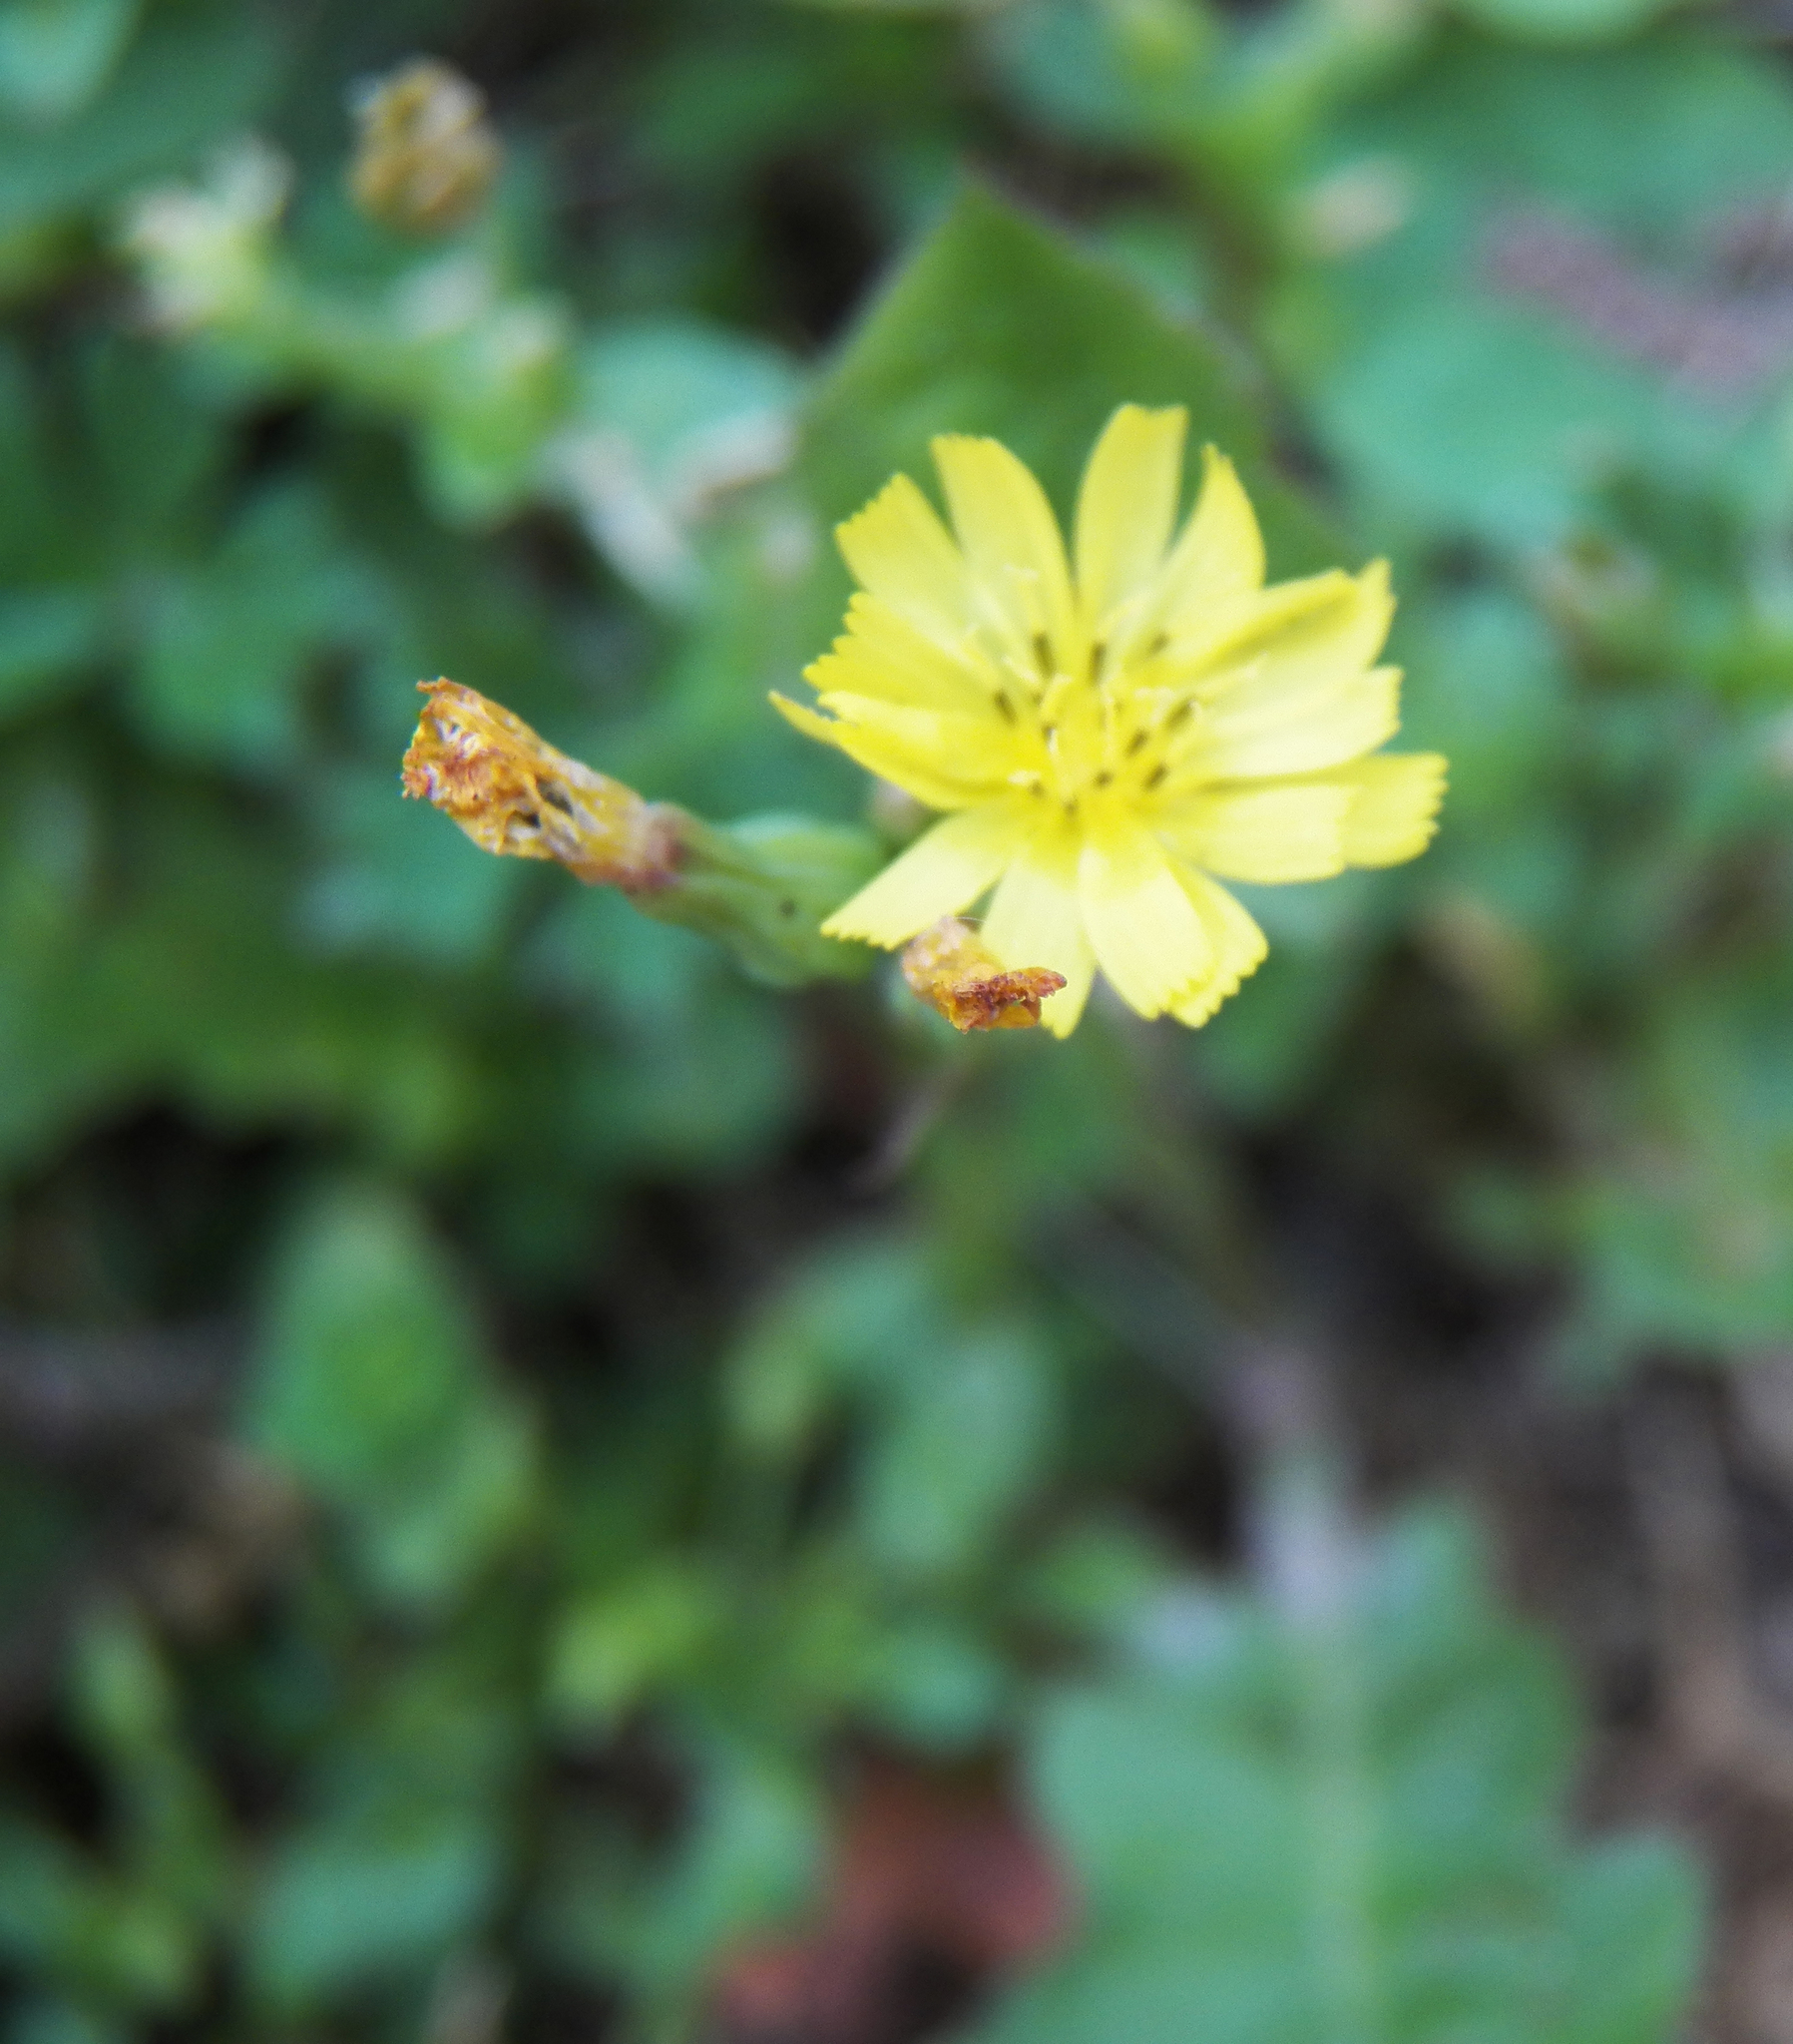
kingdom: Plantae
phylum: Tracheophyta
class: Magnoliopsida
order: Asterales
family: Asteraceae
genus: Youngia
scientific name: Youngia japonica
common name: Oriental false hawksbeard
